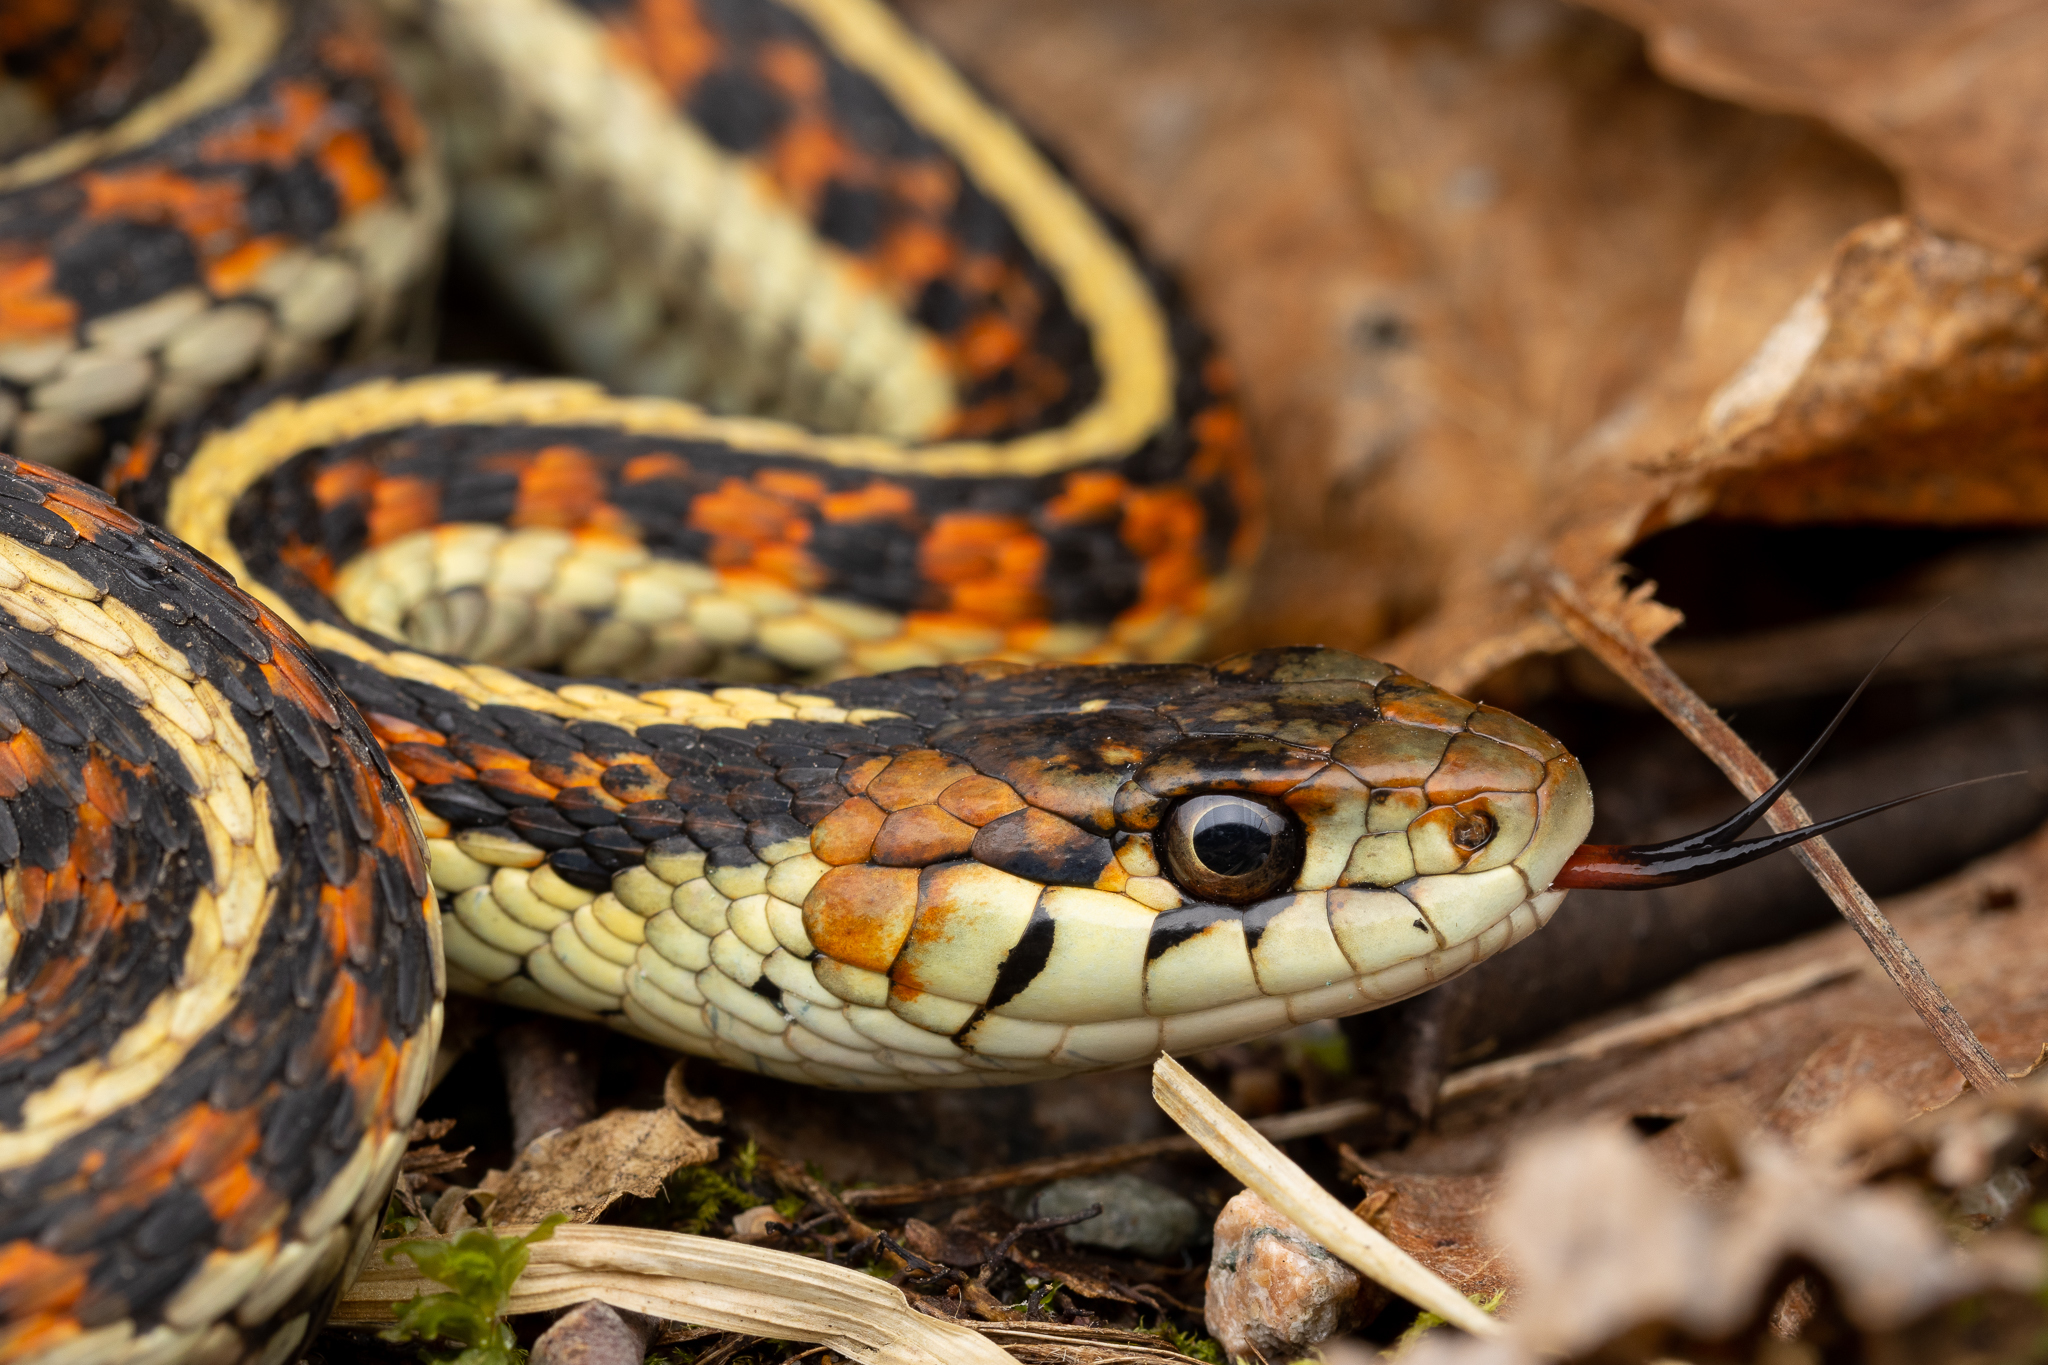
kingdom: Animalia
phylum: Chordata
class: Squamata
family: Colubridae
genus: Thamnophis
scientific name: Thamnophis sirtalis
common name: Common garter snake
